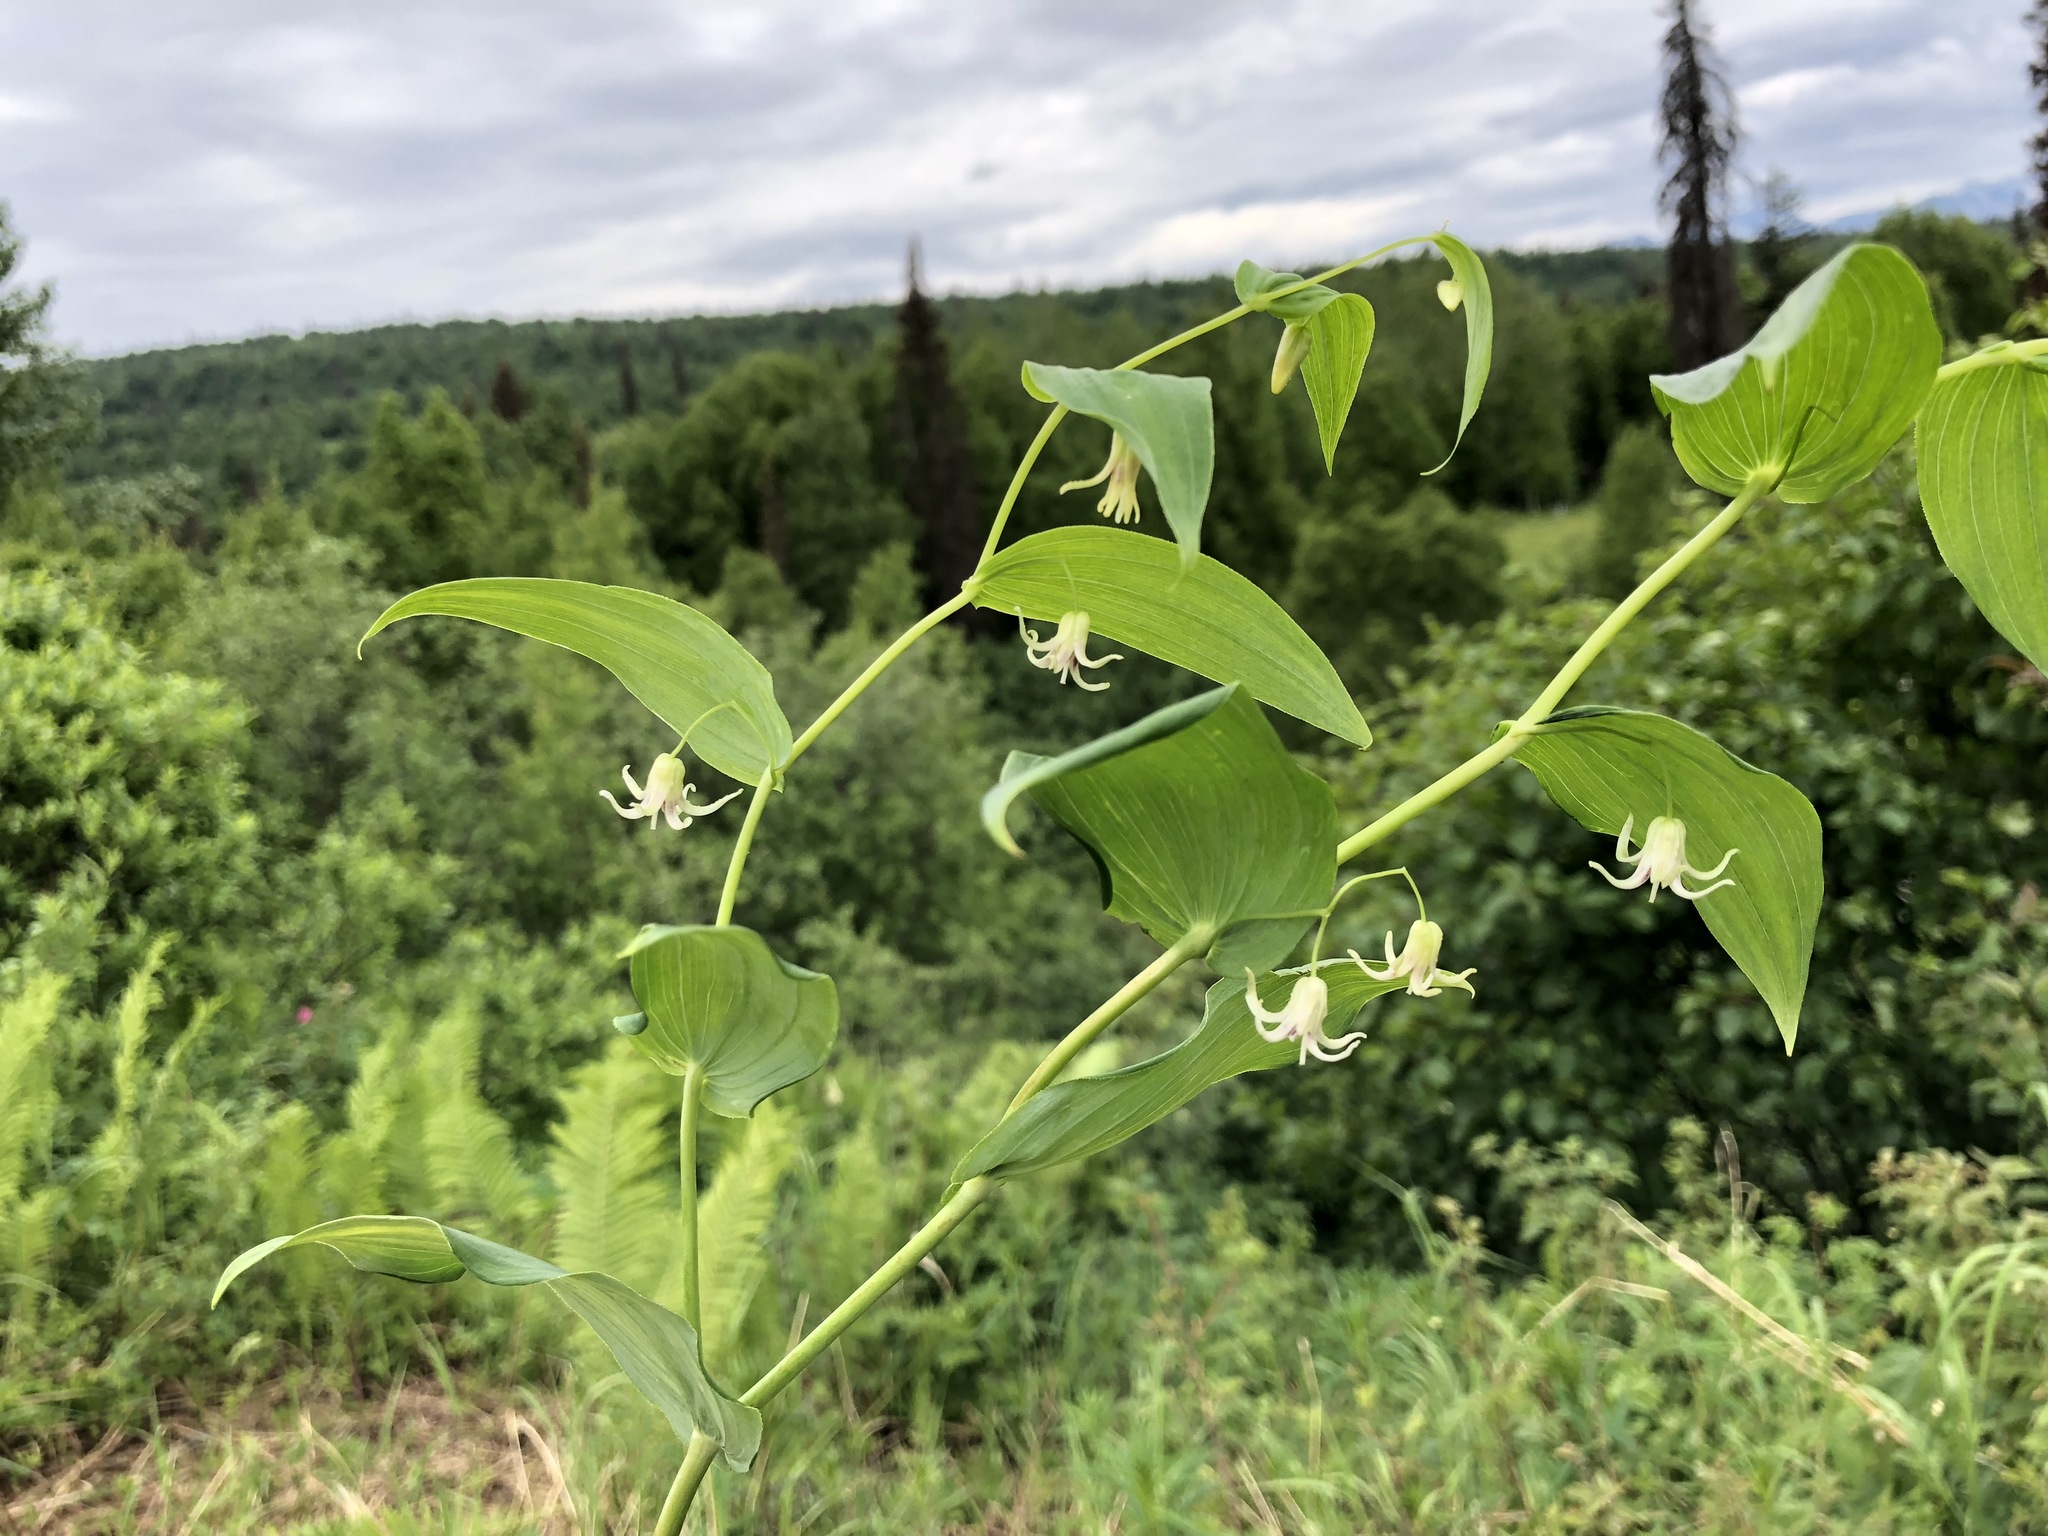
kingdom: Plantae
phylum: Tracheophyta
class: Liliopsida
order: Liliales
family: Liliaceae
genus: Streptopus
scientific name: Streptopus amplexifolius
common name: Clasp twisted stalk
